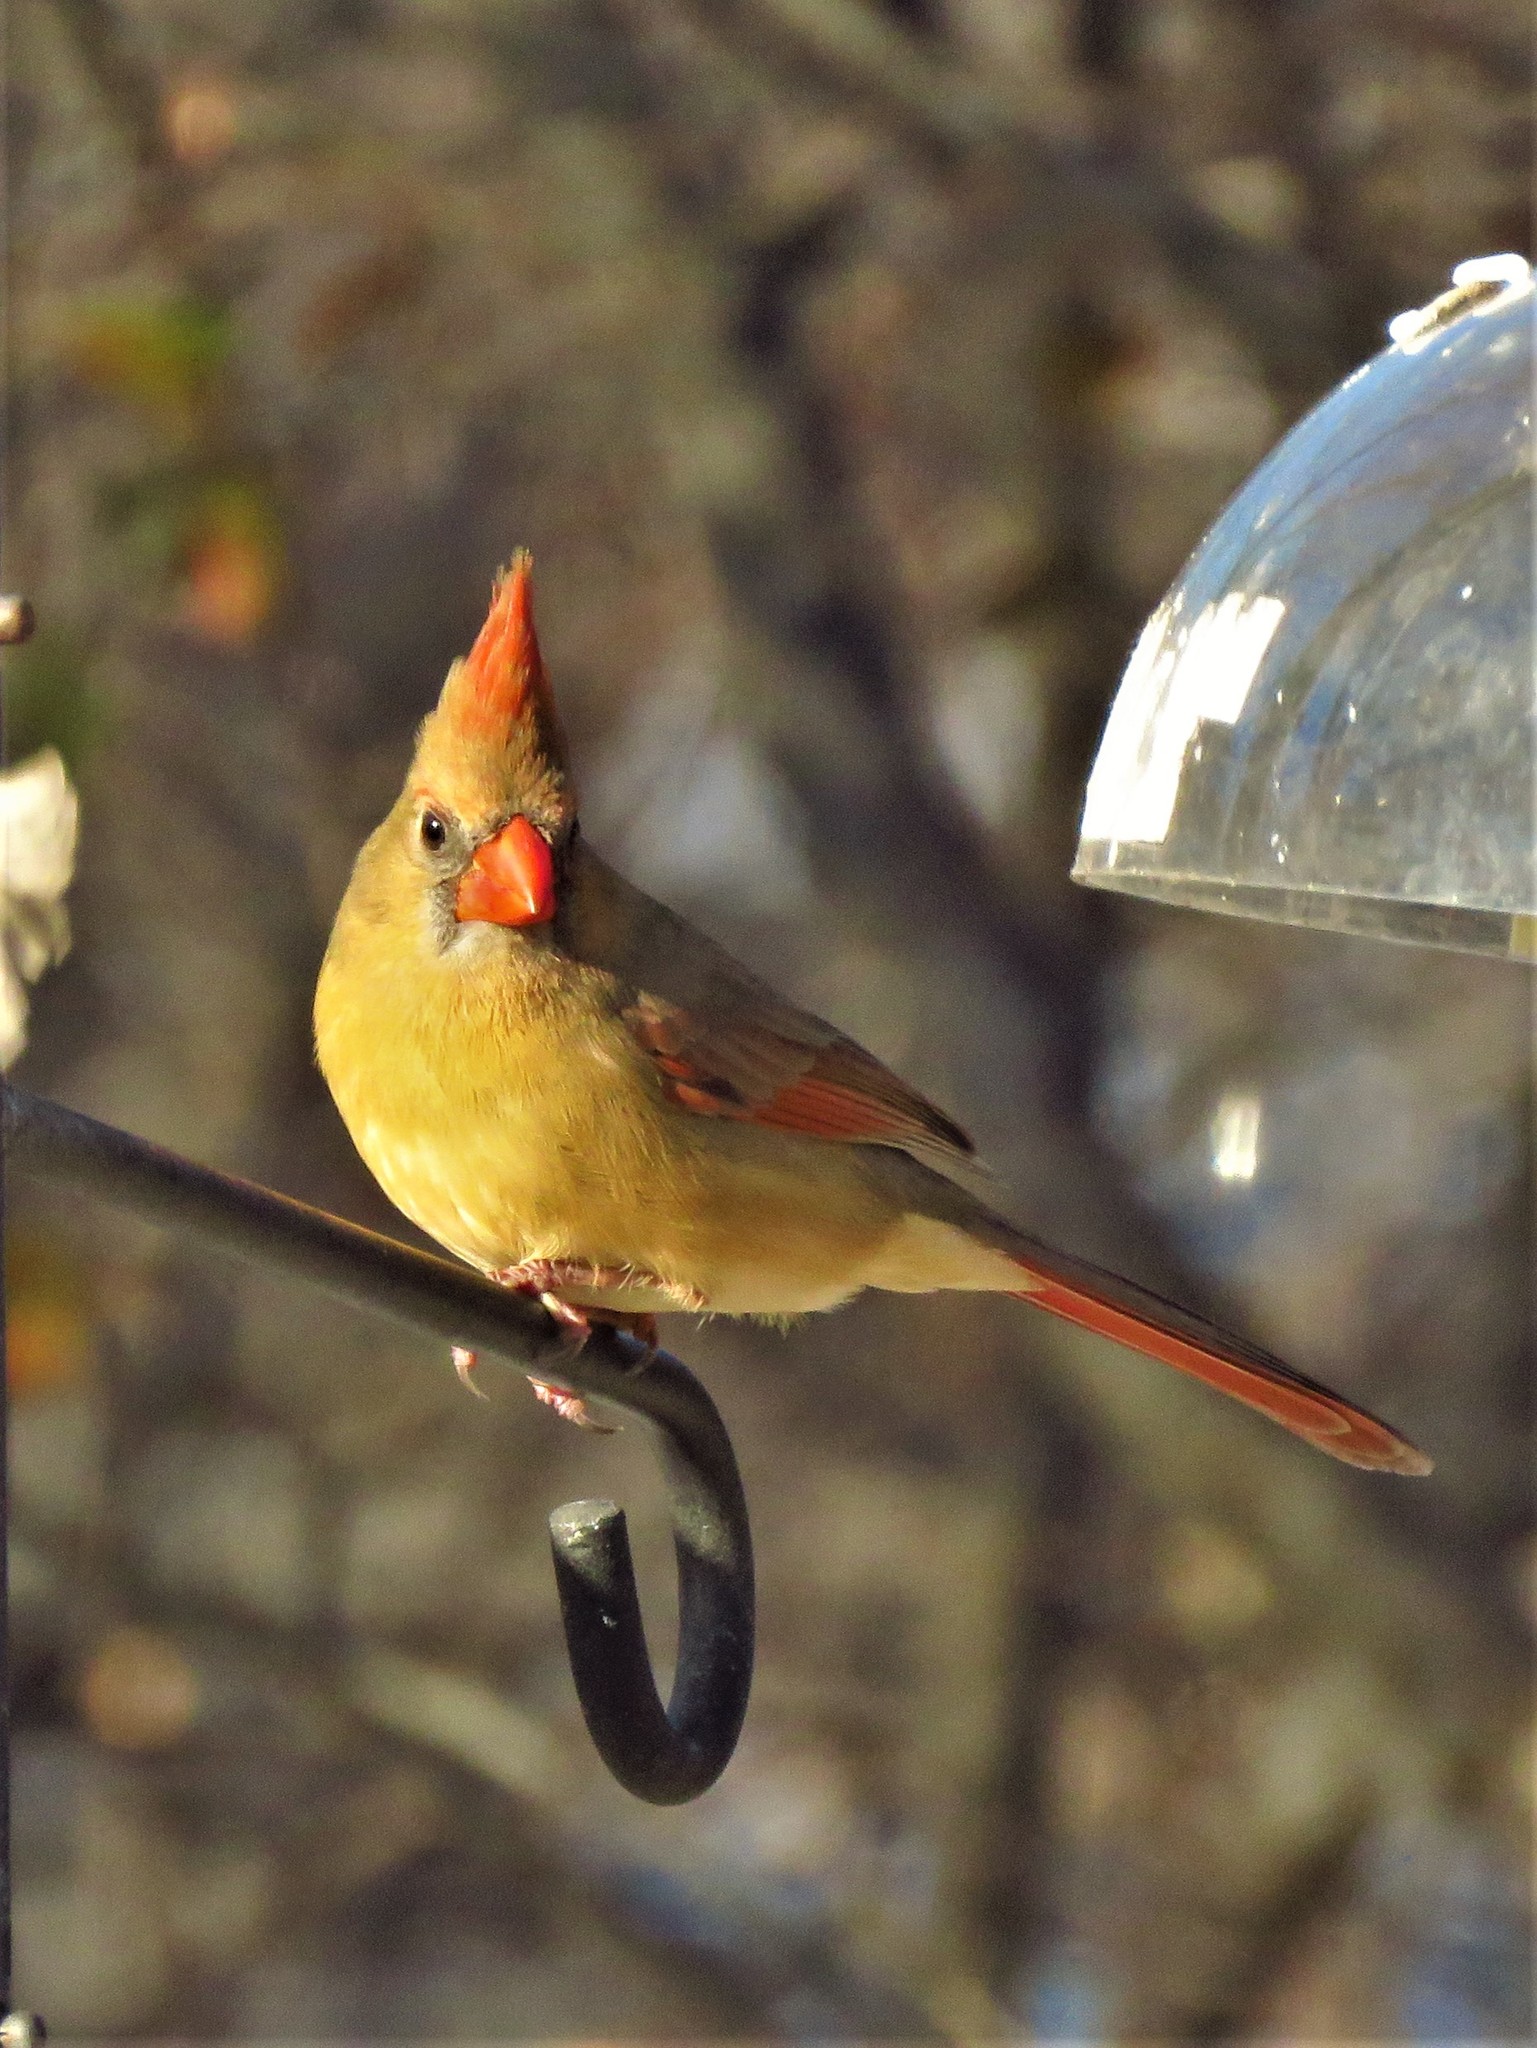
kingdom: Animalia
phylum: Chordata
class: Aves
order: Passeriformes
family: Cardinalidae
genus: Cardinalis
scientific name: Cardinalis cardinalis
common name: Northern cardinal
